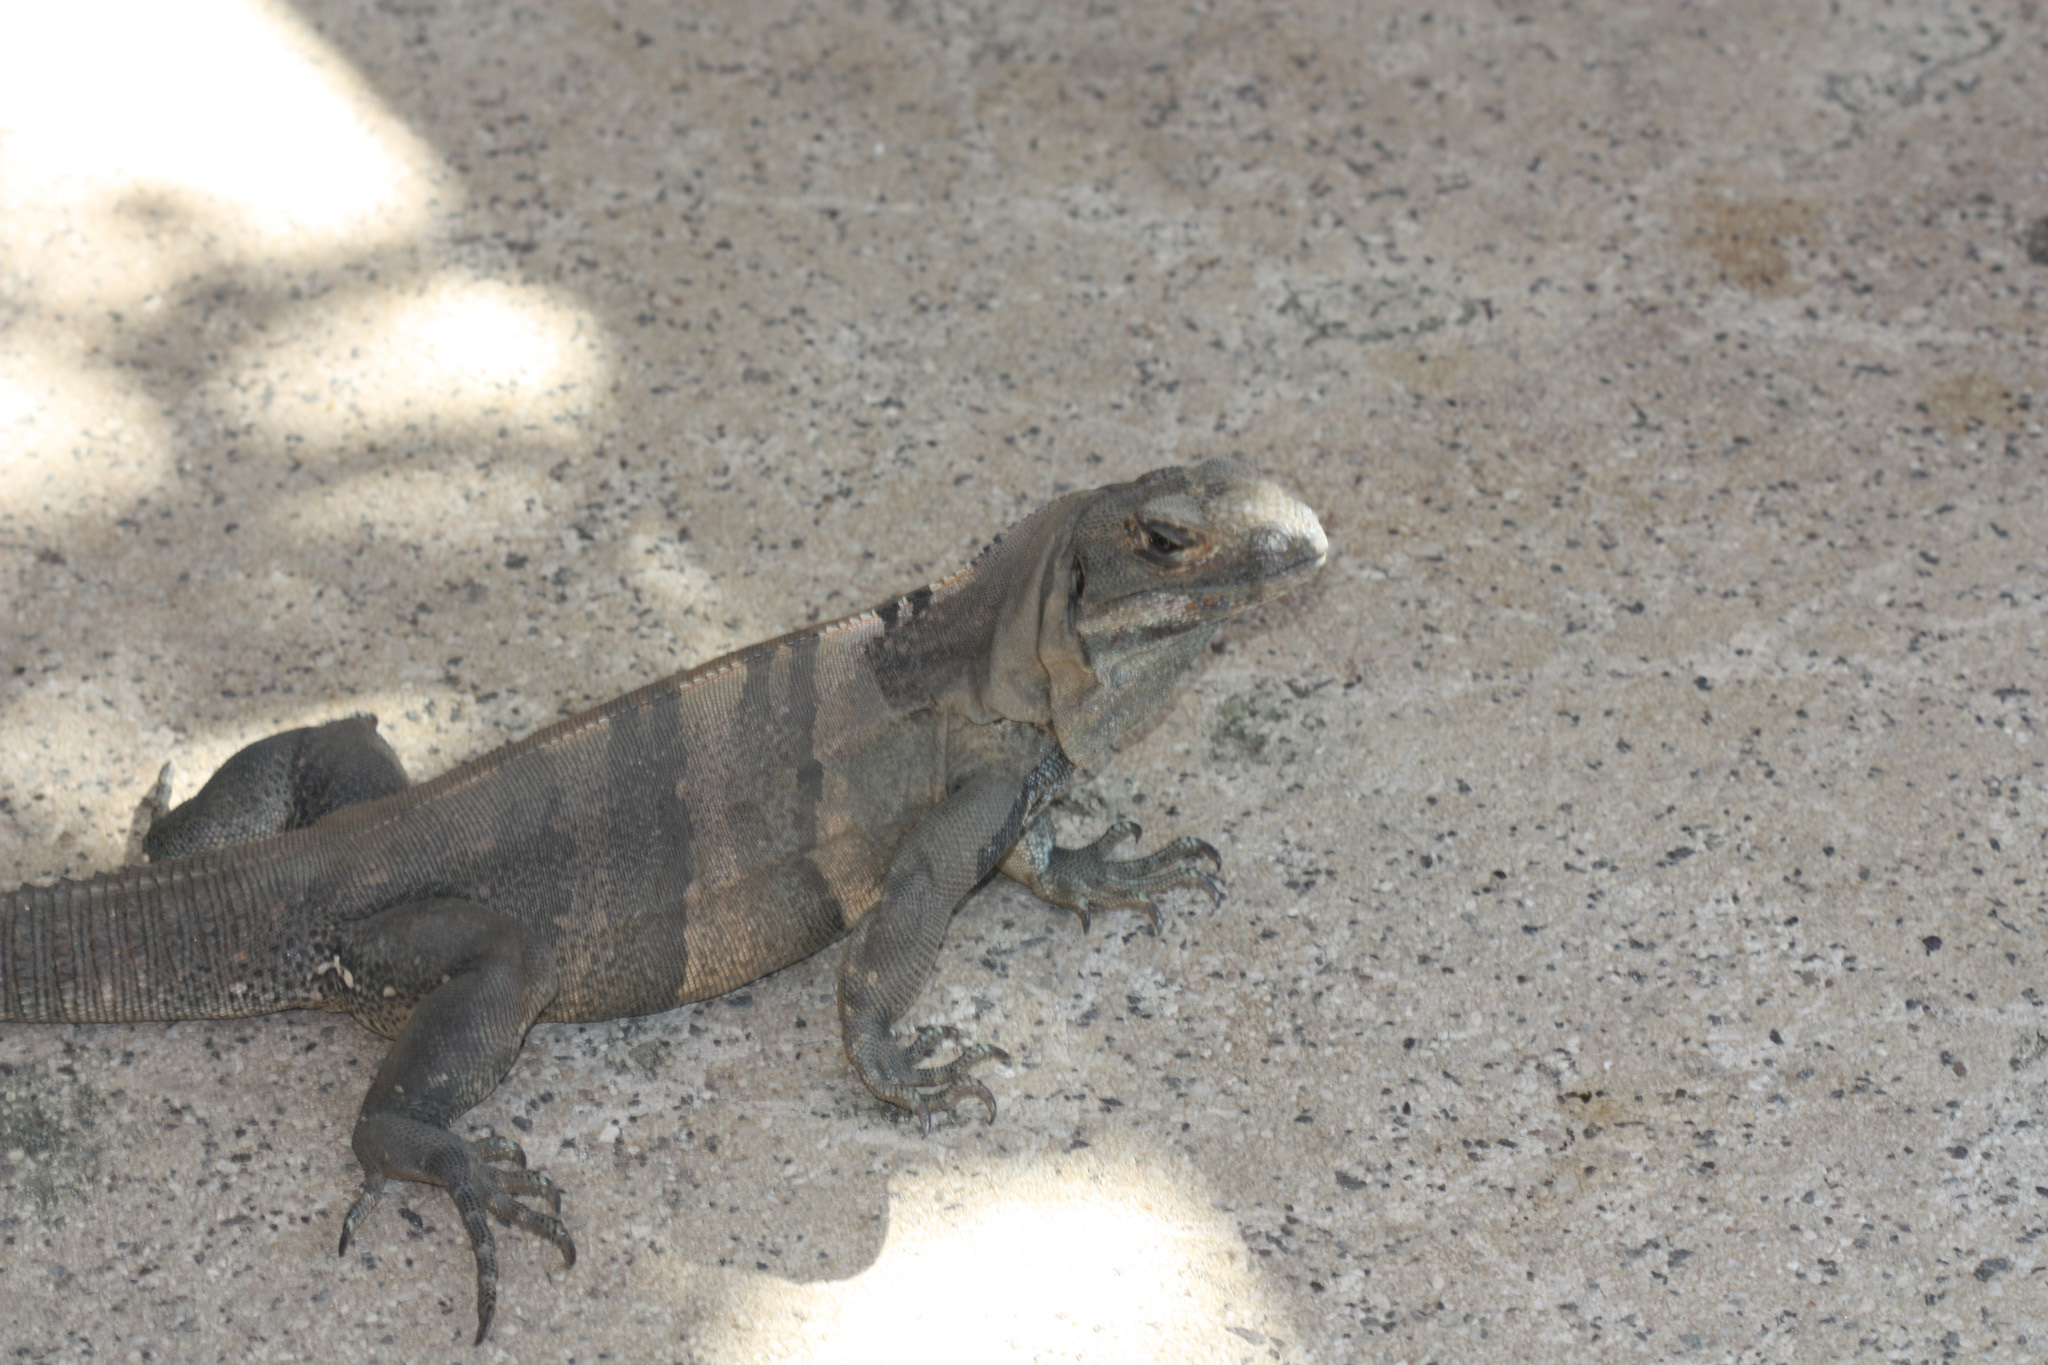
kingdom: Animalia
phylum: Chordata
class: Squamata
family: Iguanidae
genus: Ctenosaura
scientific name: Ctenosaura similis
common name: Black spiny-tailed iguana
